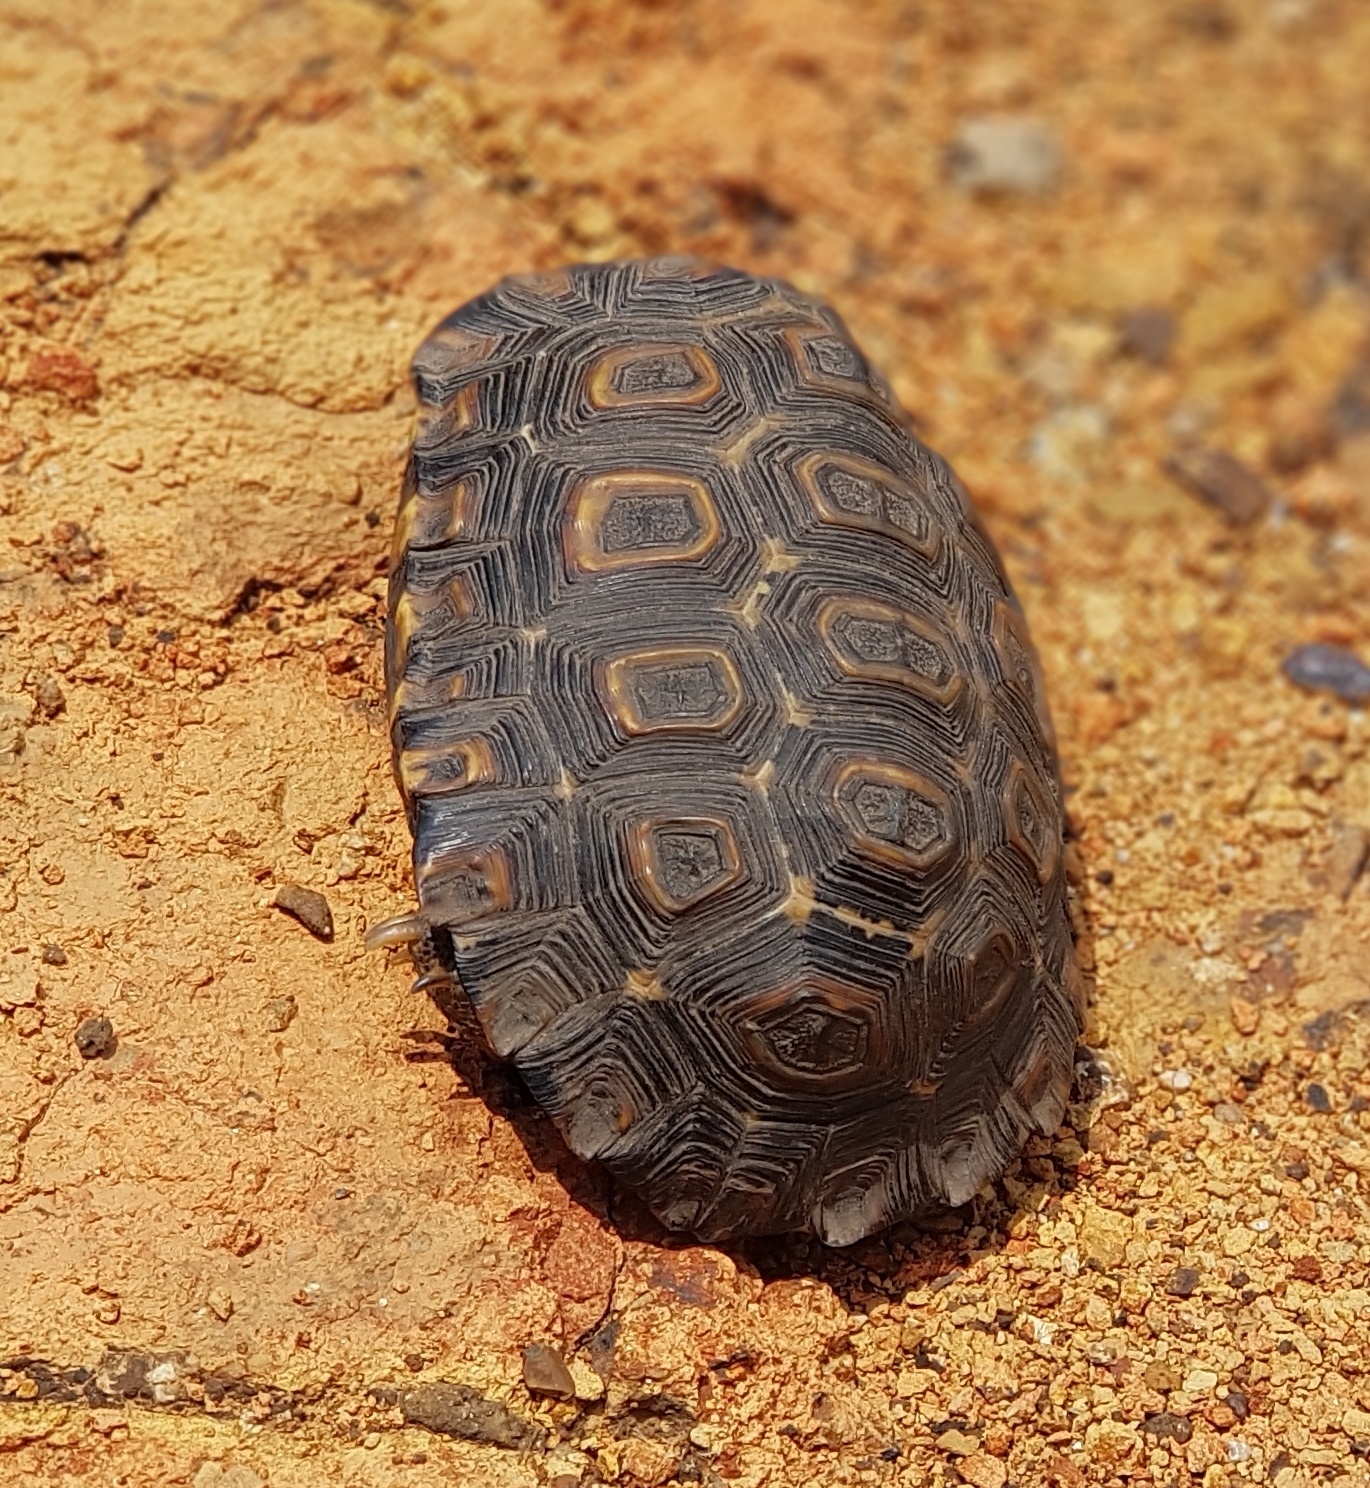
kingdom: Animalia
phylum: Chordata
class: Testudines
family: Testudinidae
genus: Kinixys
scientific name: Kinixys natalensis
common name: Natal hinge-back tortoise
